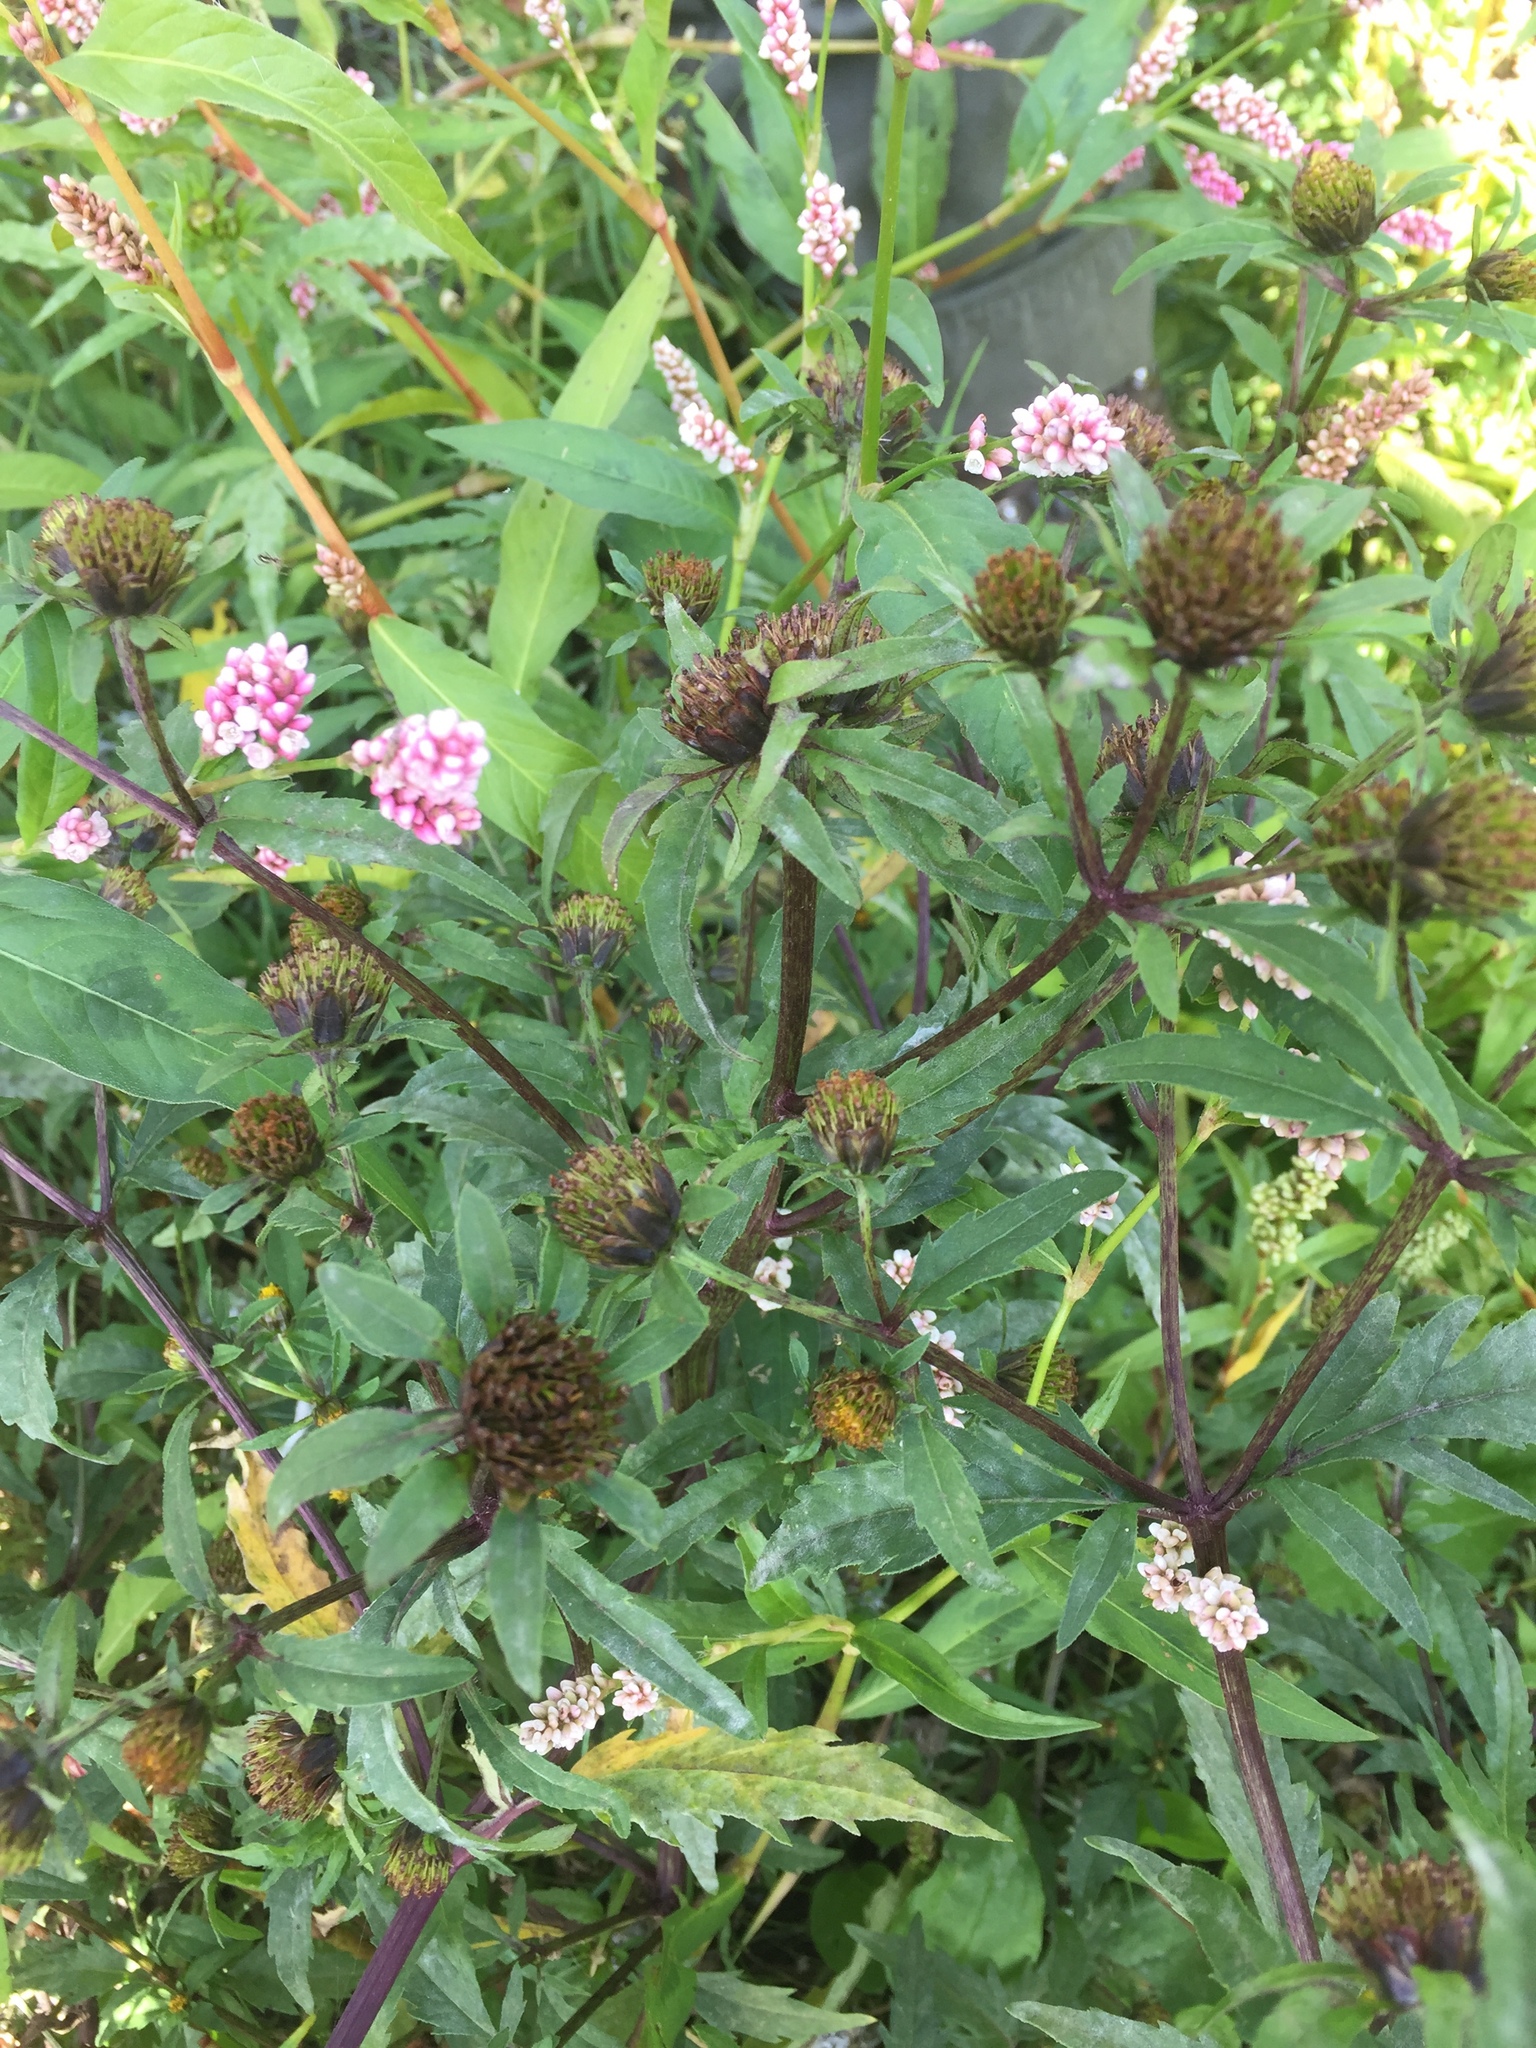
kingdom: Plantae
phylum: Tracheophyta
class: Magnoliopsida
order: Asterales
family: Asteraceae
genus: Bidens
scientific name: Bidens tripartita
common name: Trifid bur-marigold
